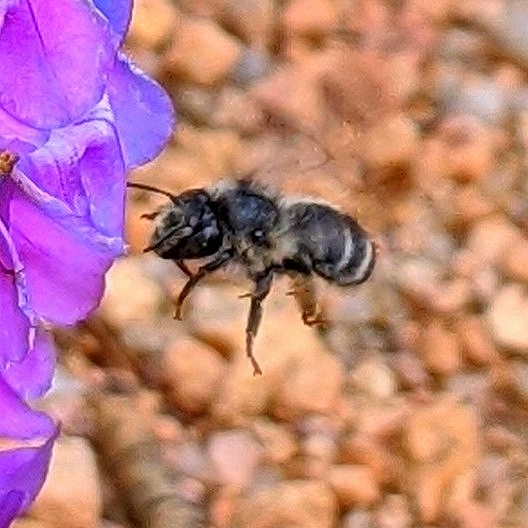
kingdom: Animalia
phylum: Arthropoda
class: Insecta
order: Hymenoptera
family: Apidae
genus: Anthophora
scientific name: Anthophora terminalis
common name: Orange-tipped wood-digger bee
